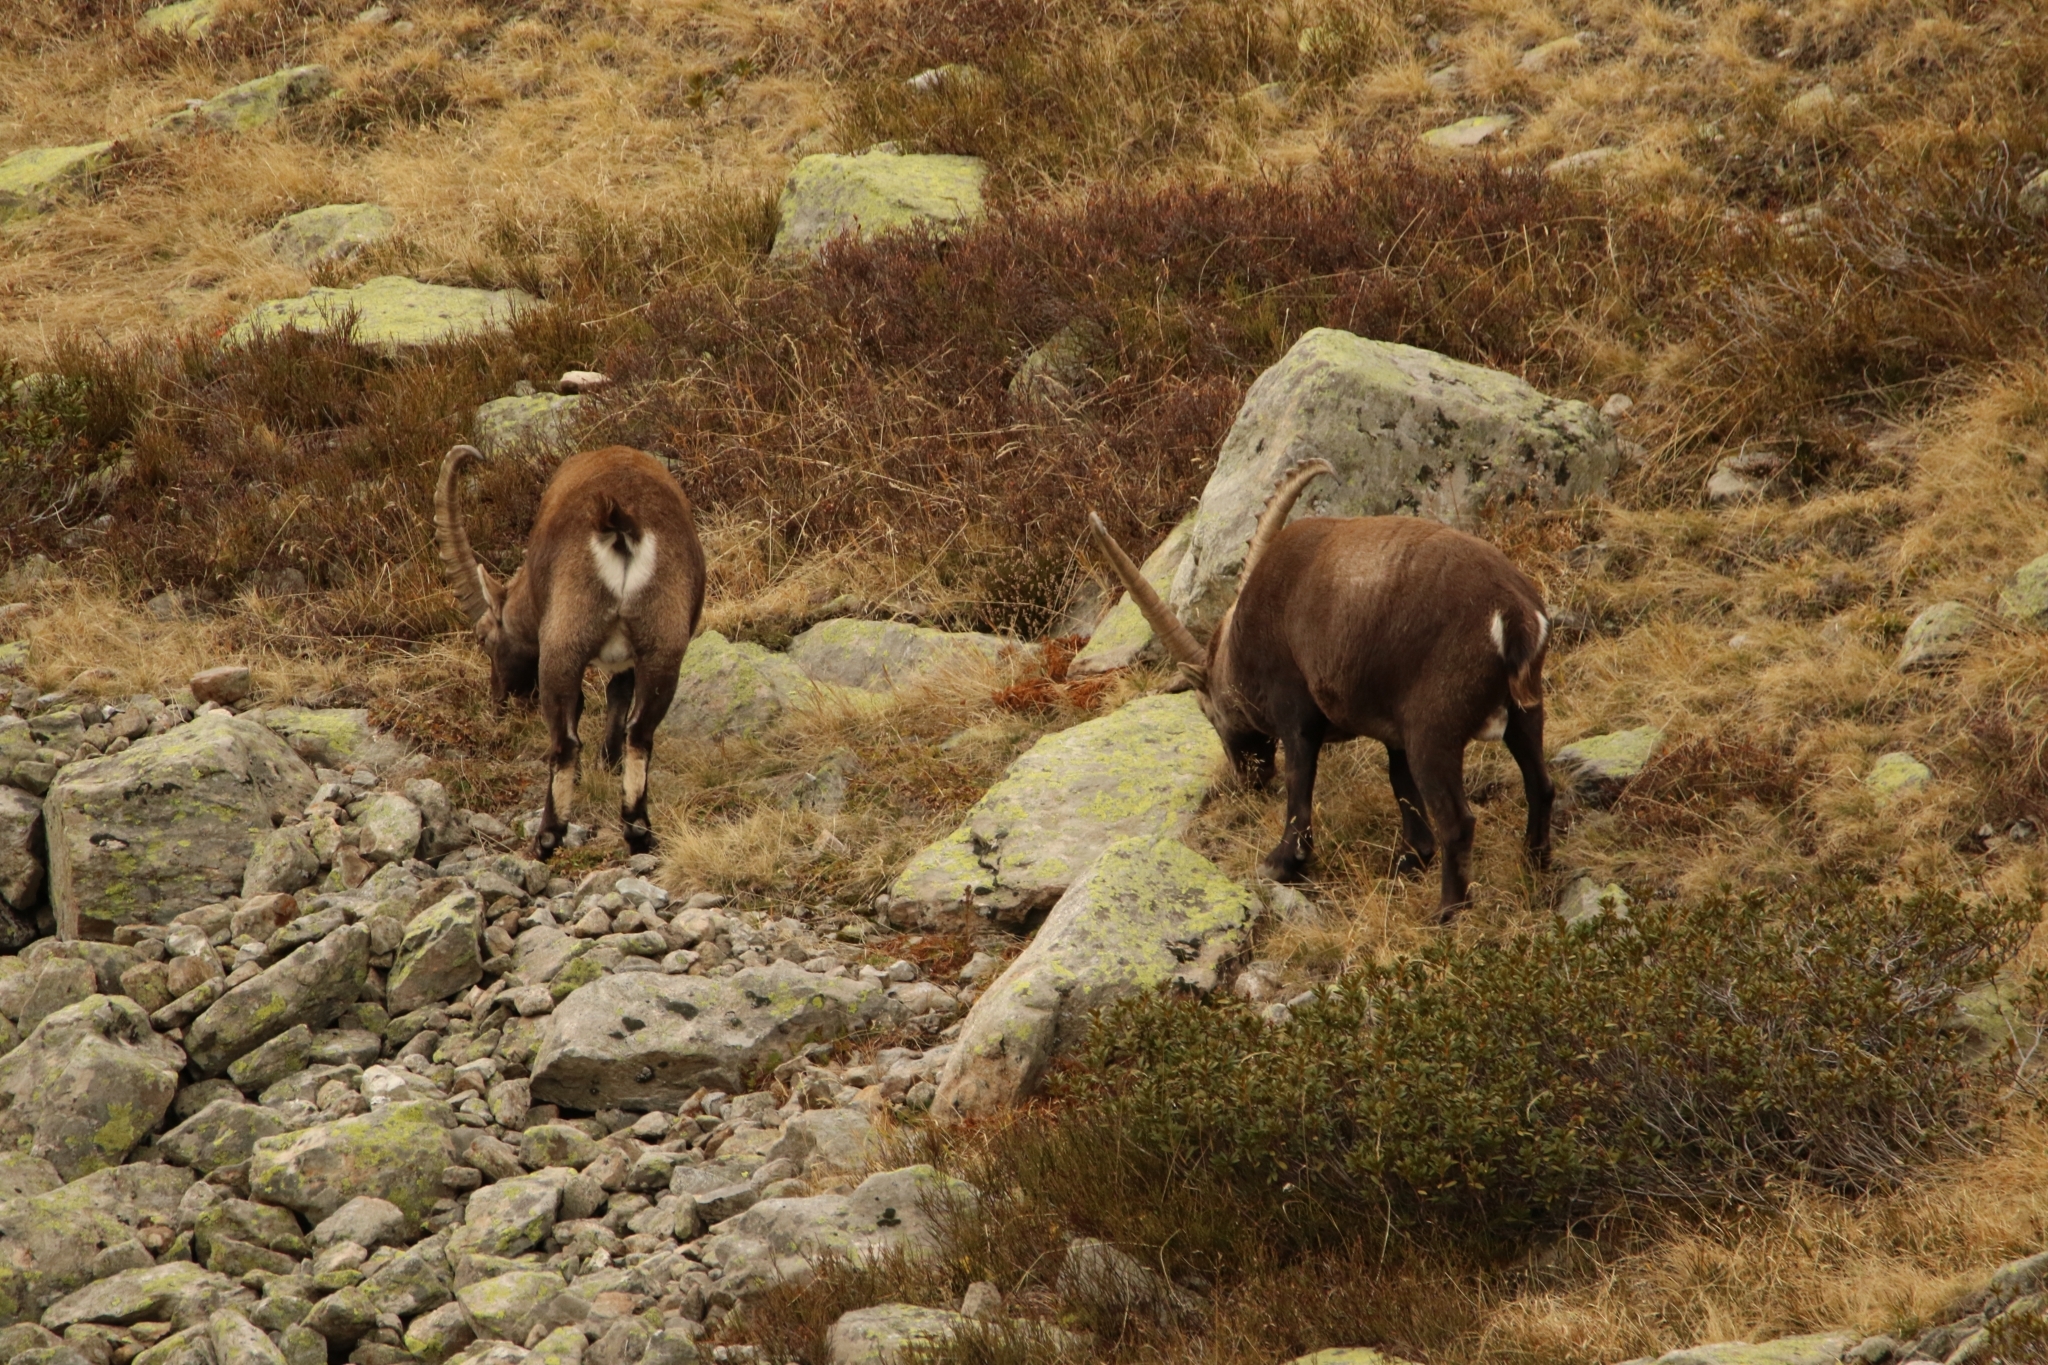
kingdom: Animalia
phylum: Chordata
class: Mammalia
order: Artiodactyla
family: Bovidae
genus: Capra
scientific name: Capra ibex
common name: Alpine ibex
